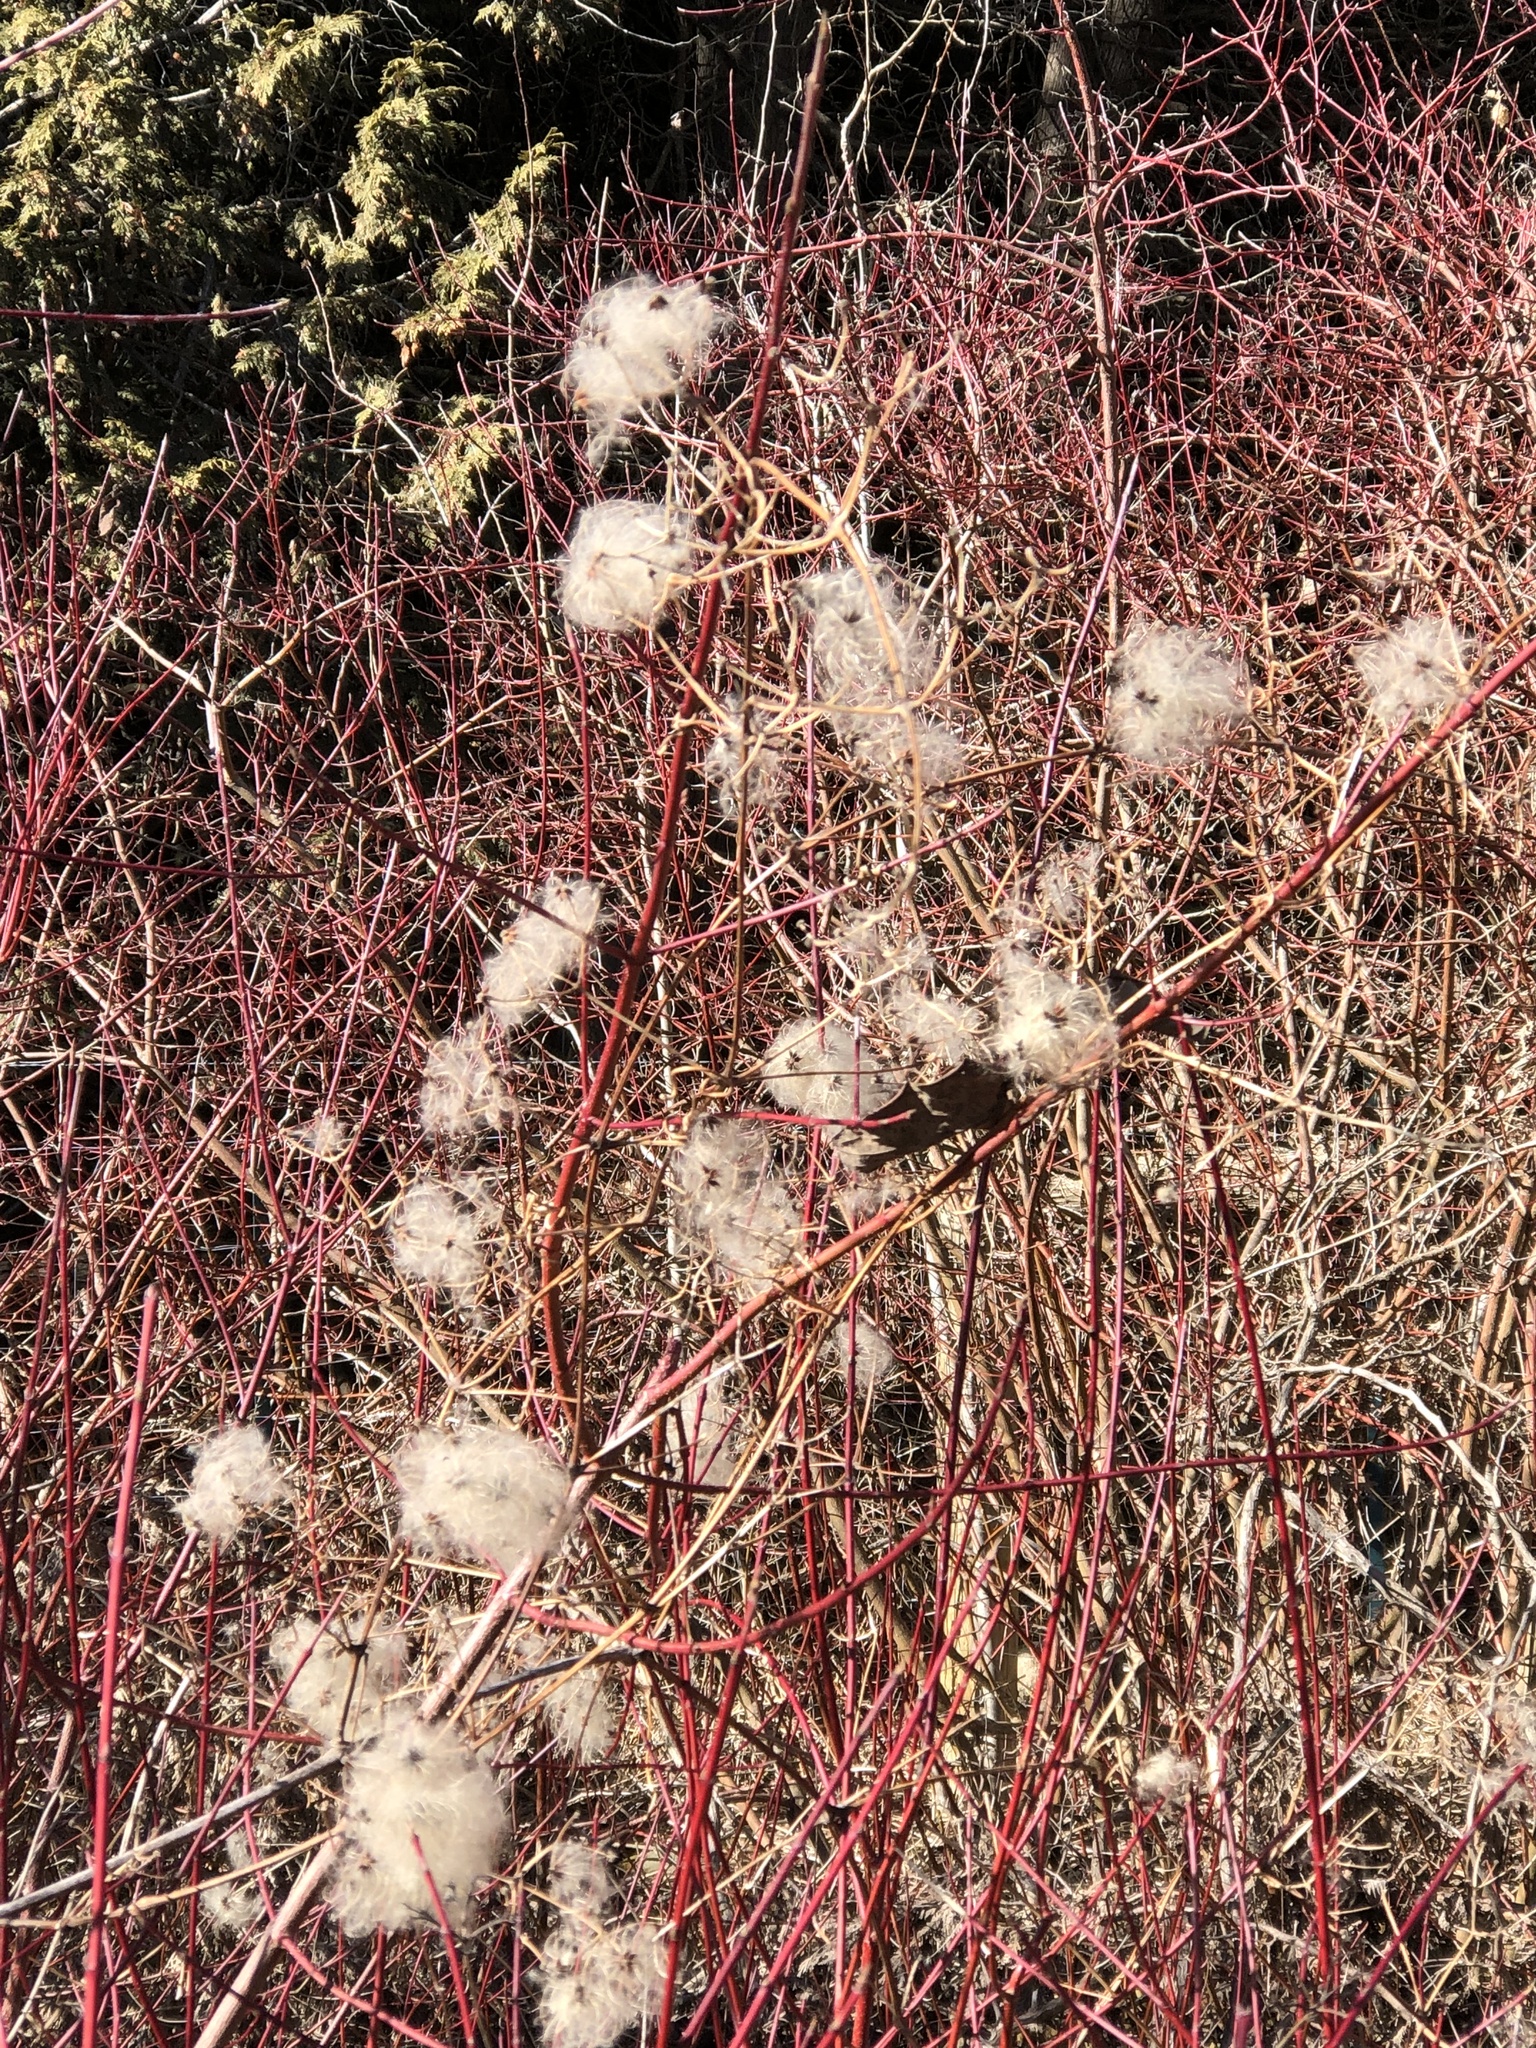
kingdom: Plantae
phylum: Tracheophyta
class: Magnoliopsida
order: Ranunculales
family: Ranunculaceae
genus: Clematis
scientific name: Clematis virginiana
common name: Virgin's-bower
